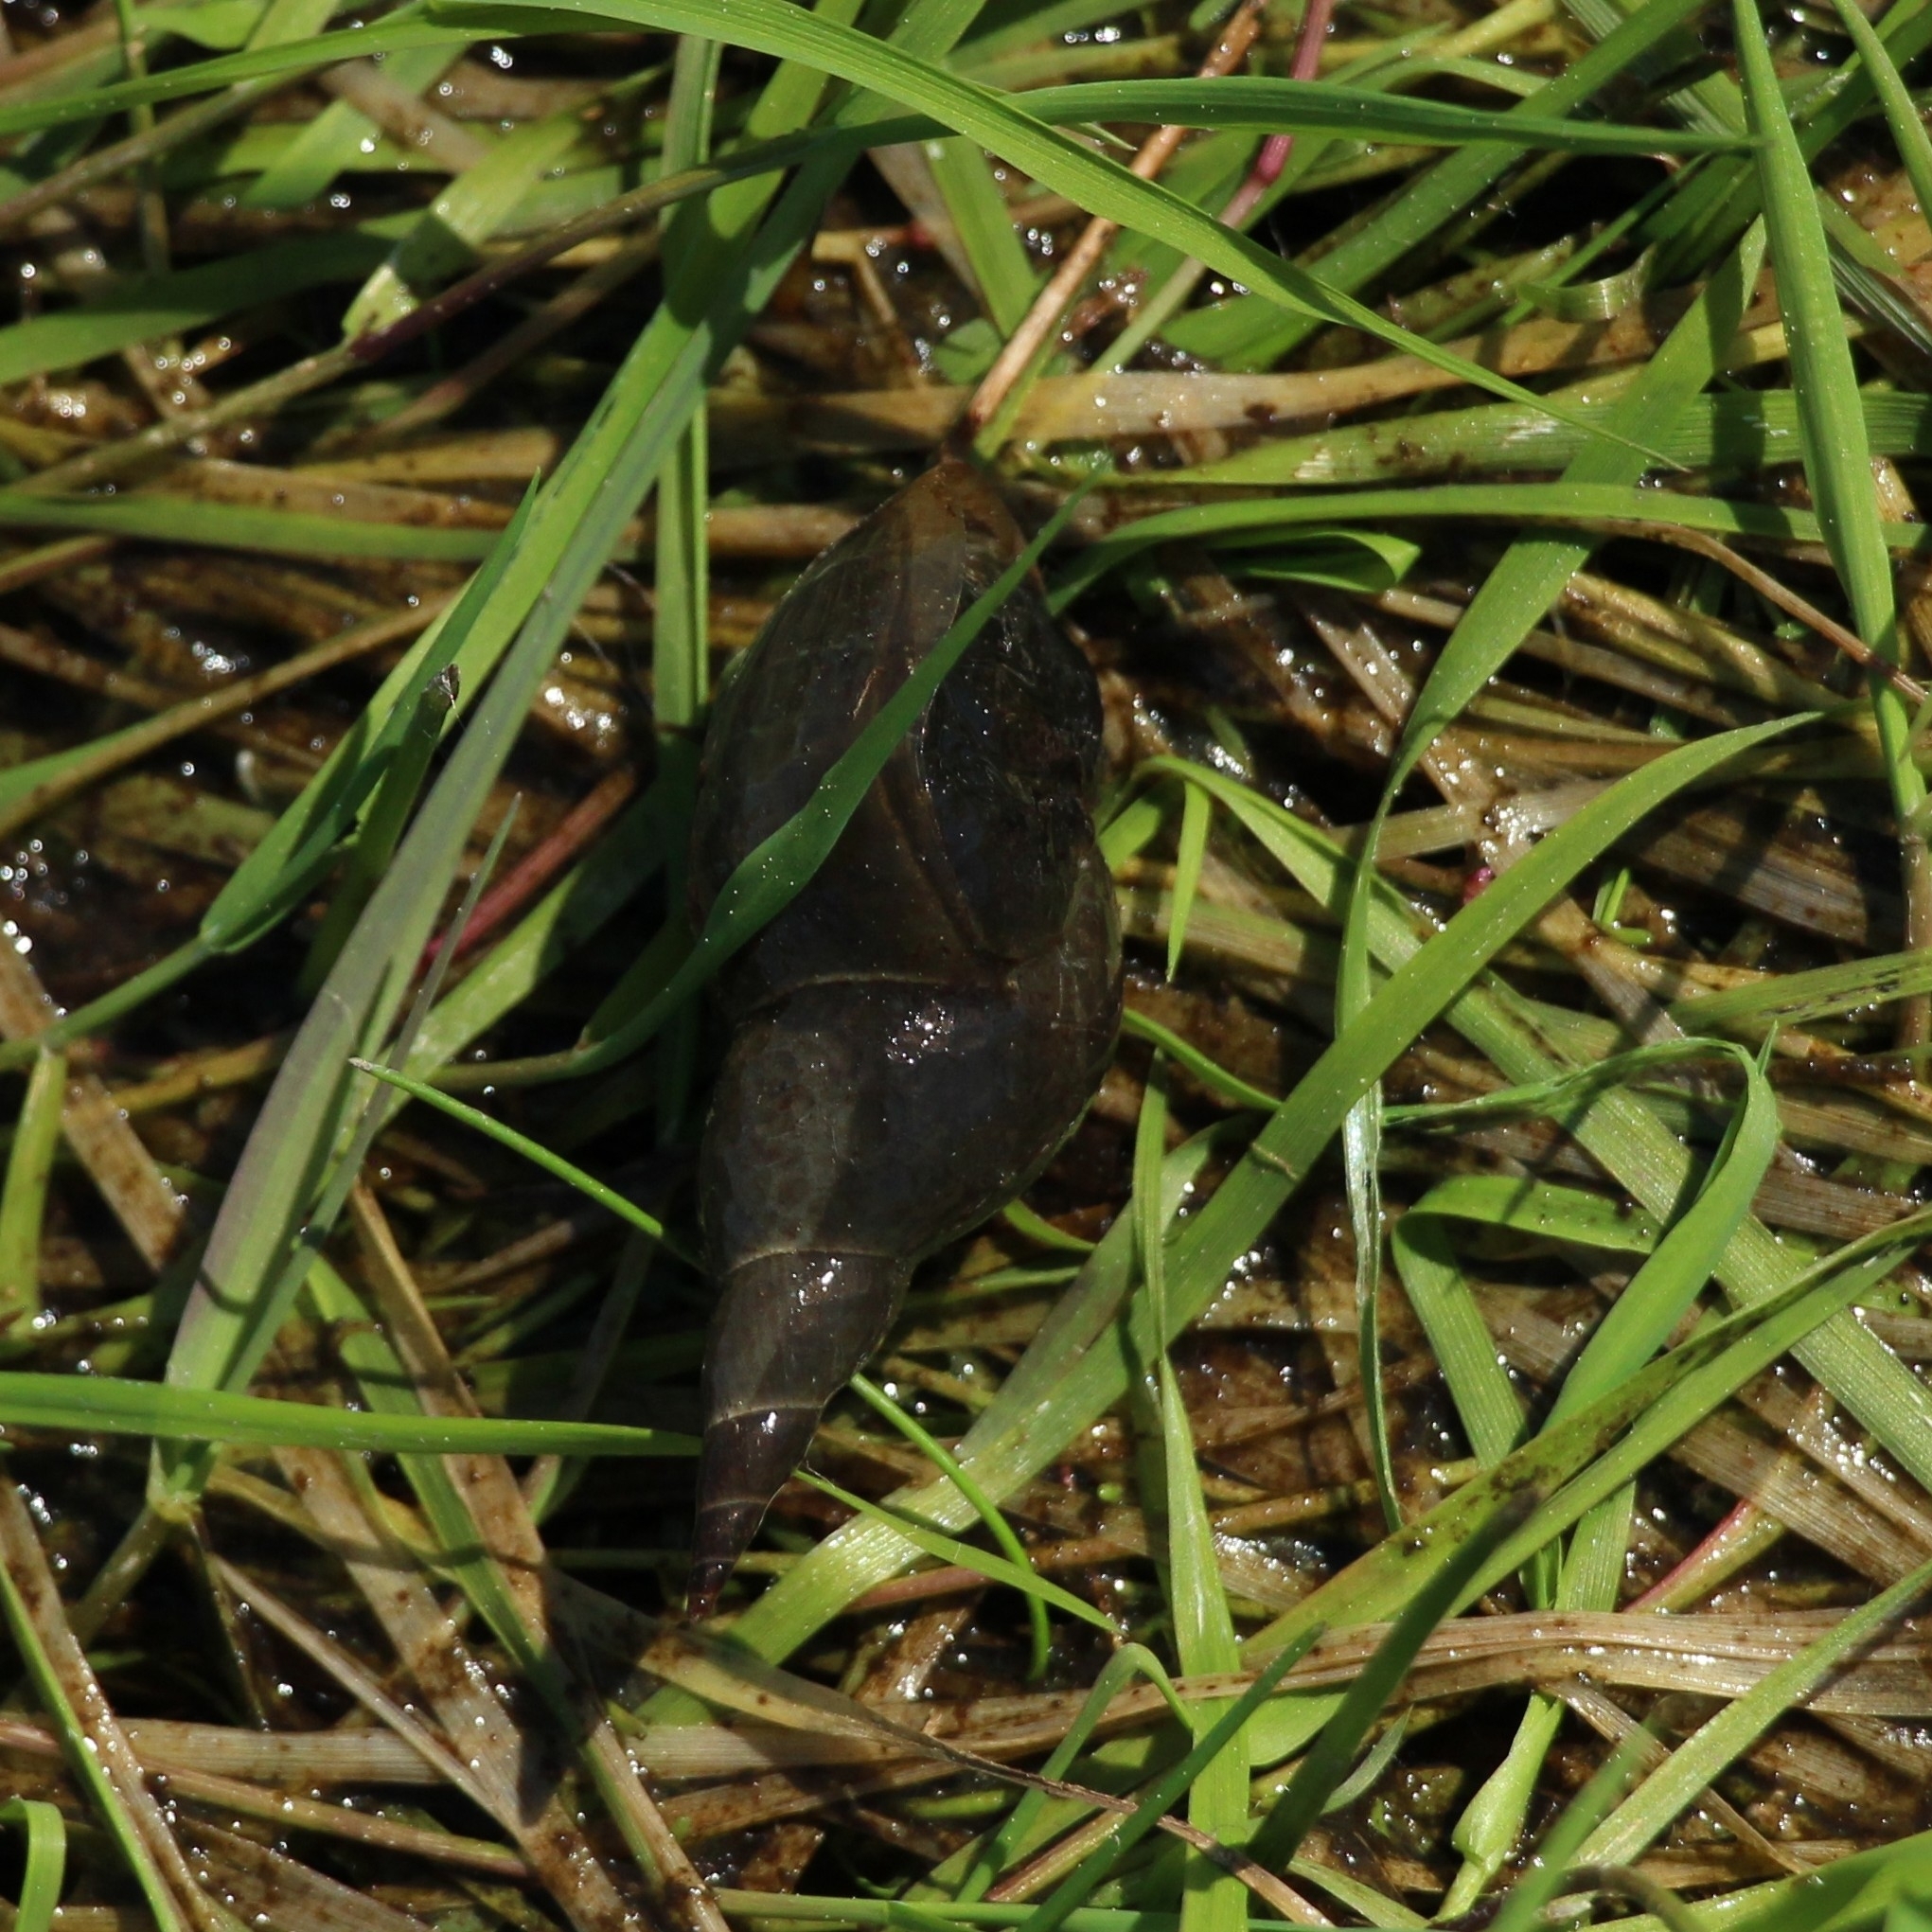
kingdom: Animalia
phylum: Mollusca
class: Gastropoda
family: Lymnaeidae
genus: Lymnaea
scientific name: Lymnaea stagnalis
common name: Great pond snail
